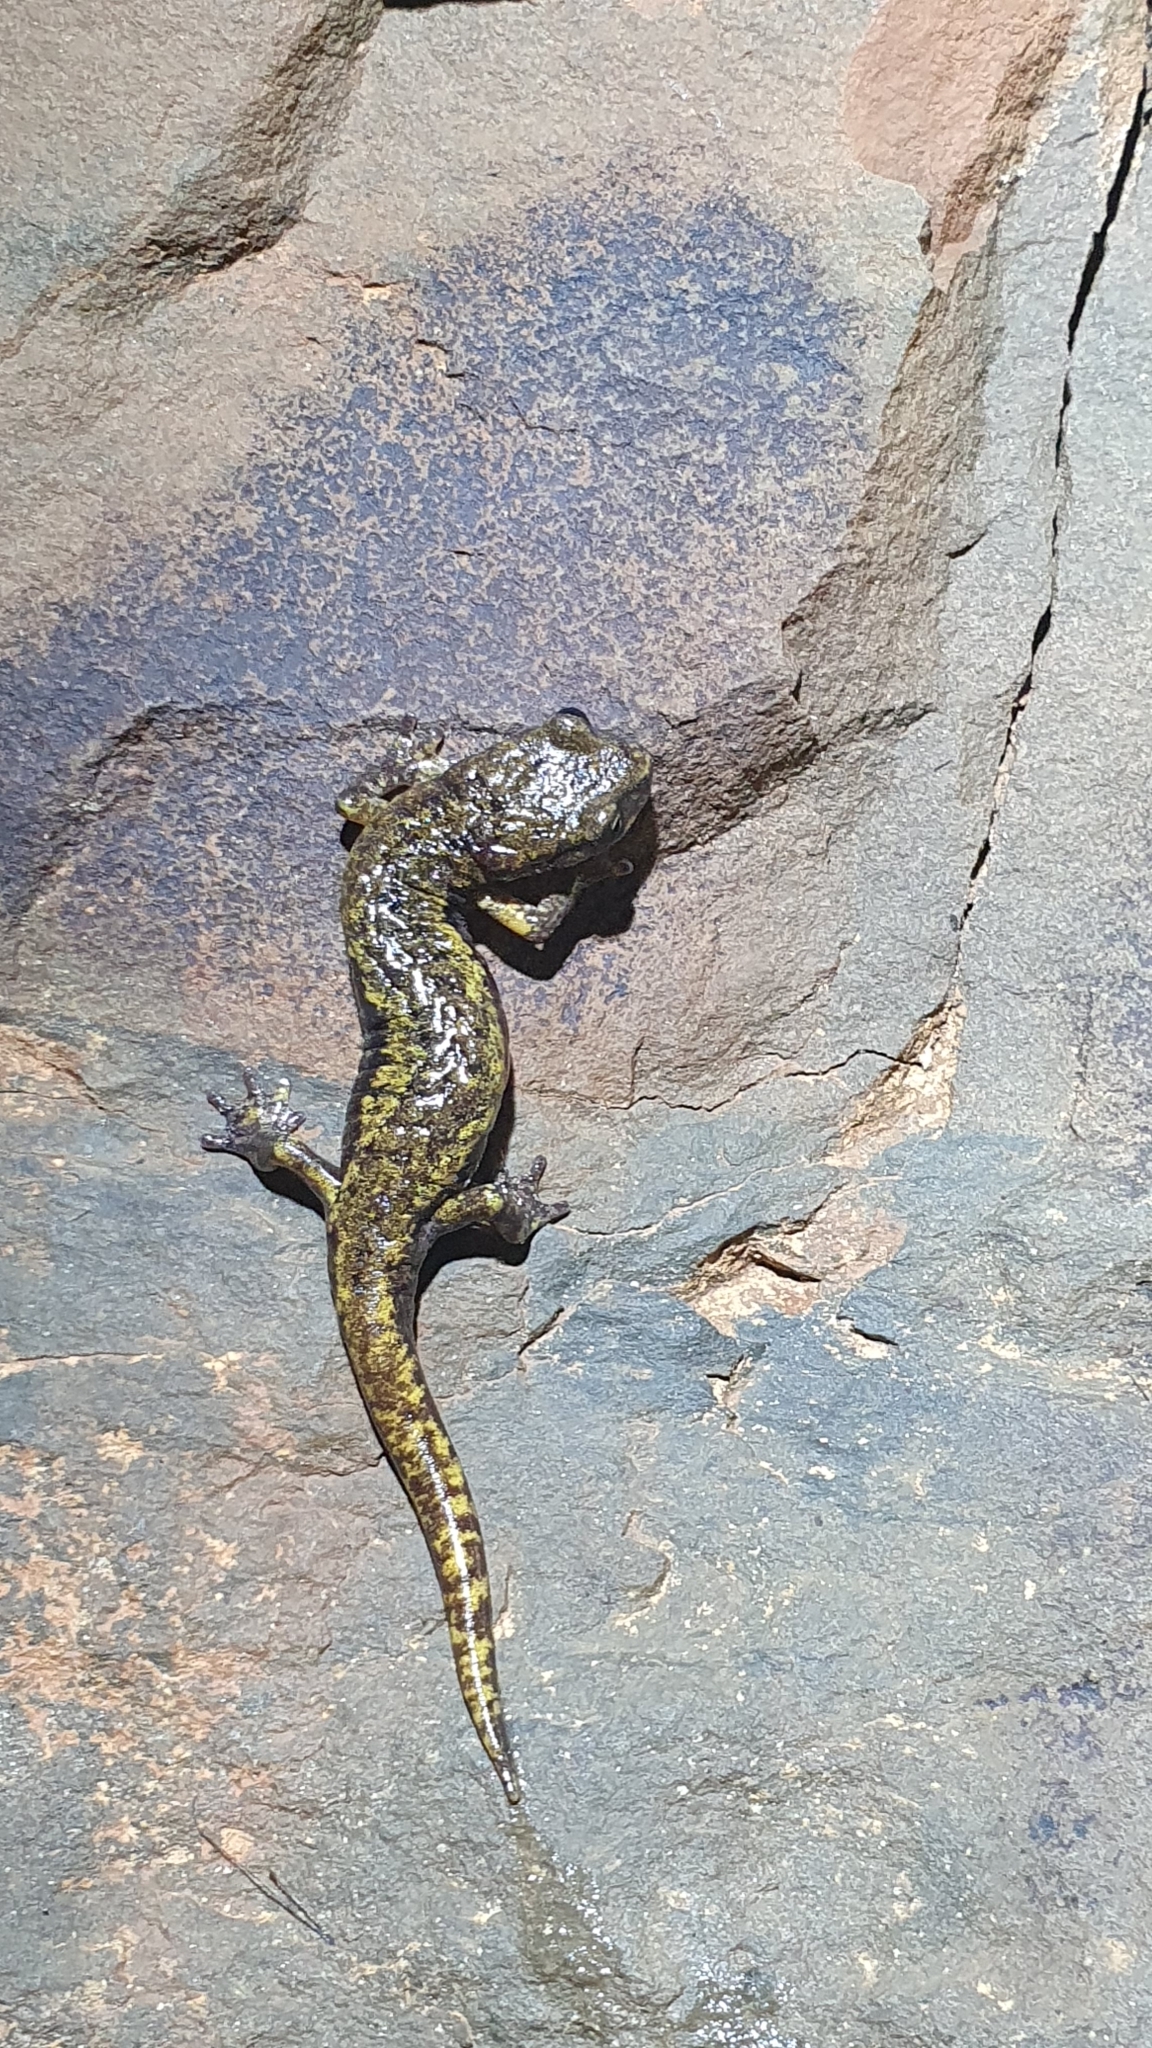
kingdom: Animalia
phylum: Chordata
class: Amphibia
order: Caudata
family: Plethodontidae
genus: Speleomantes
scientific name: Speleomantes strinatii
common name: French cave salamander
